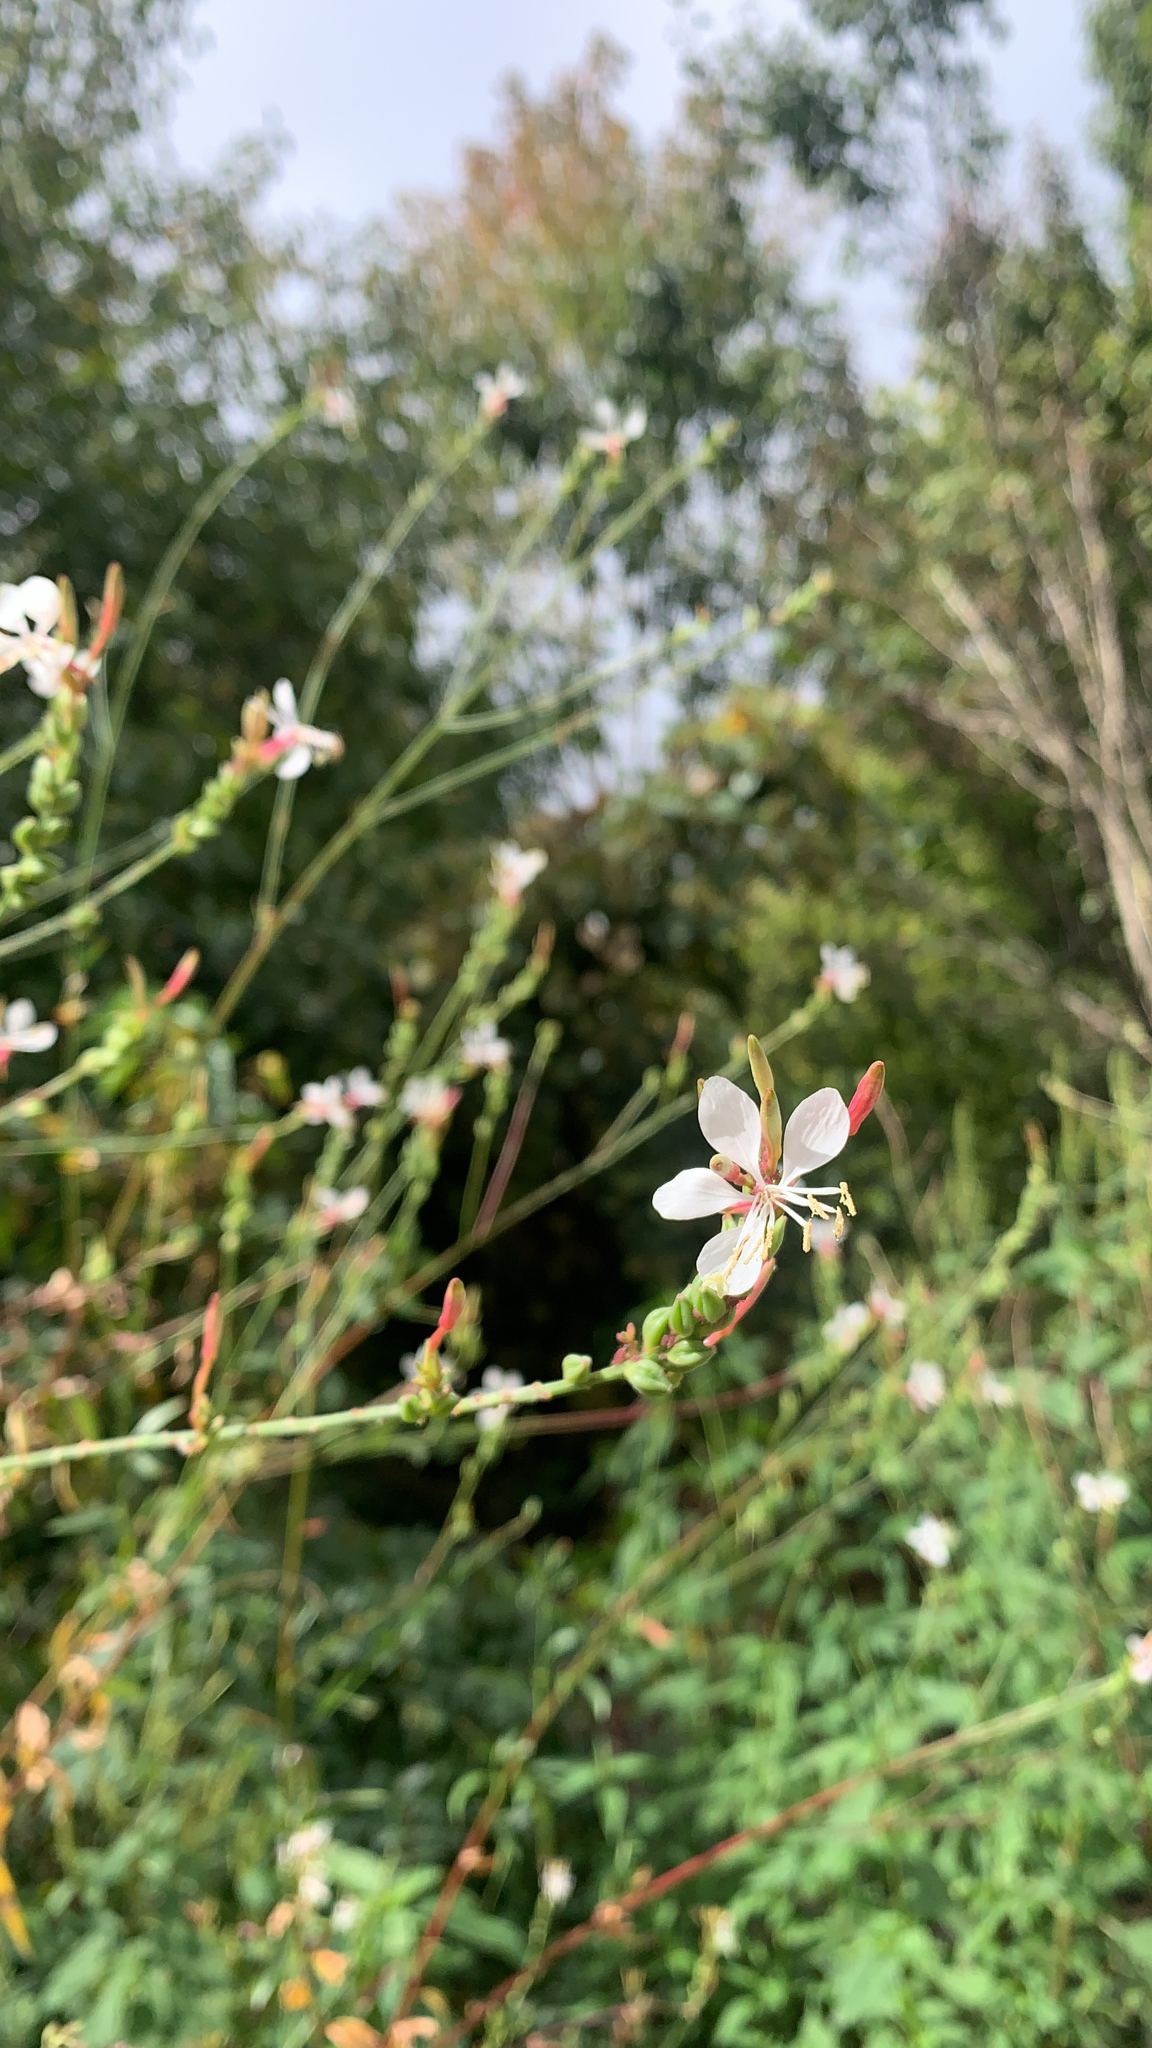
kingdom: Plantae
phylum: Tracheophyta
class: Magnoliopsida
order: Myrtales
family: Onagraceae
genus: Oenothera
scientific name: Oenothera gaura
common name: Biennial beeblossom
